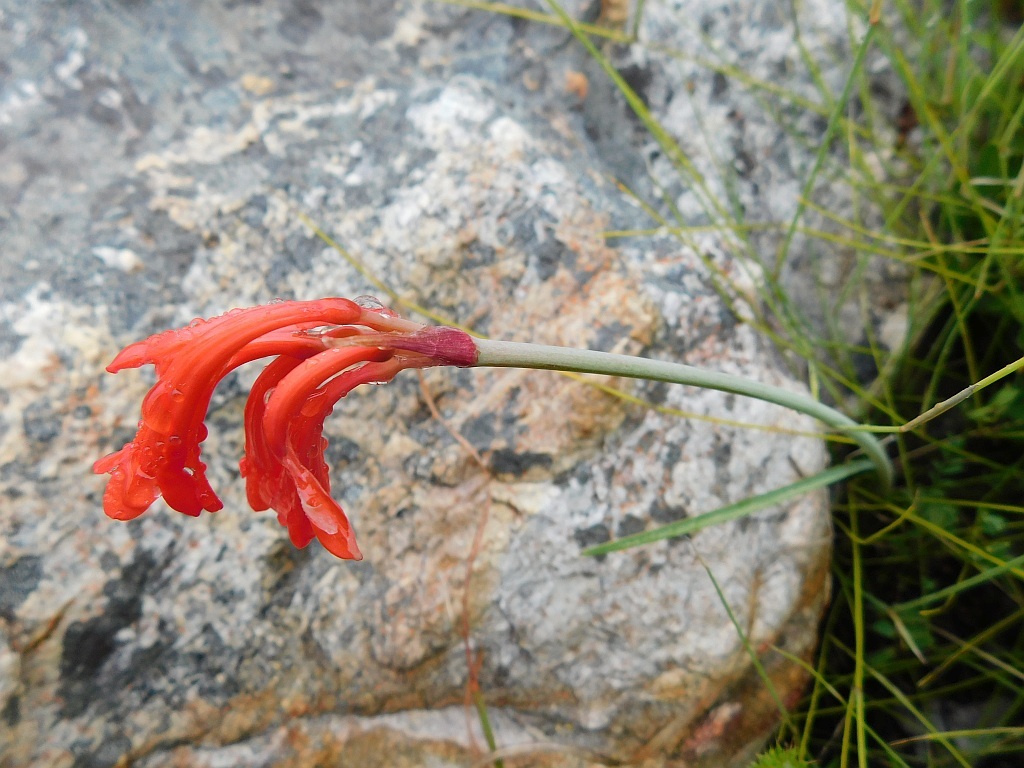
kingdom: Plantae
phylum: Tracheophyta
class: Liliopsida
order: Asparagales
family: Amaryllidaceae
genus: Cyrtanthus
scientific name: Cyrtanthus collinus
